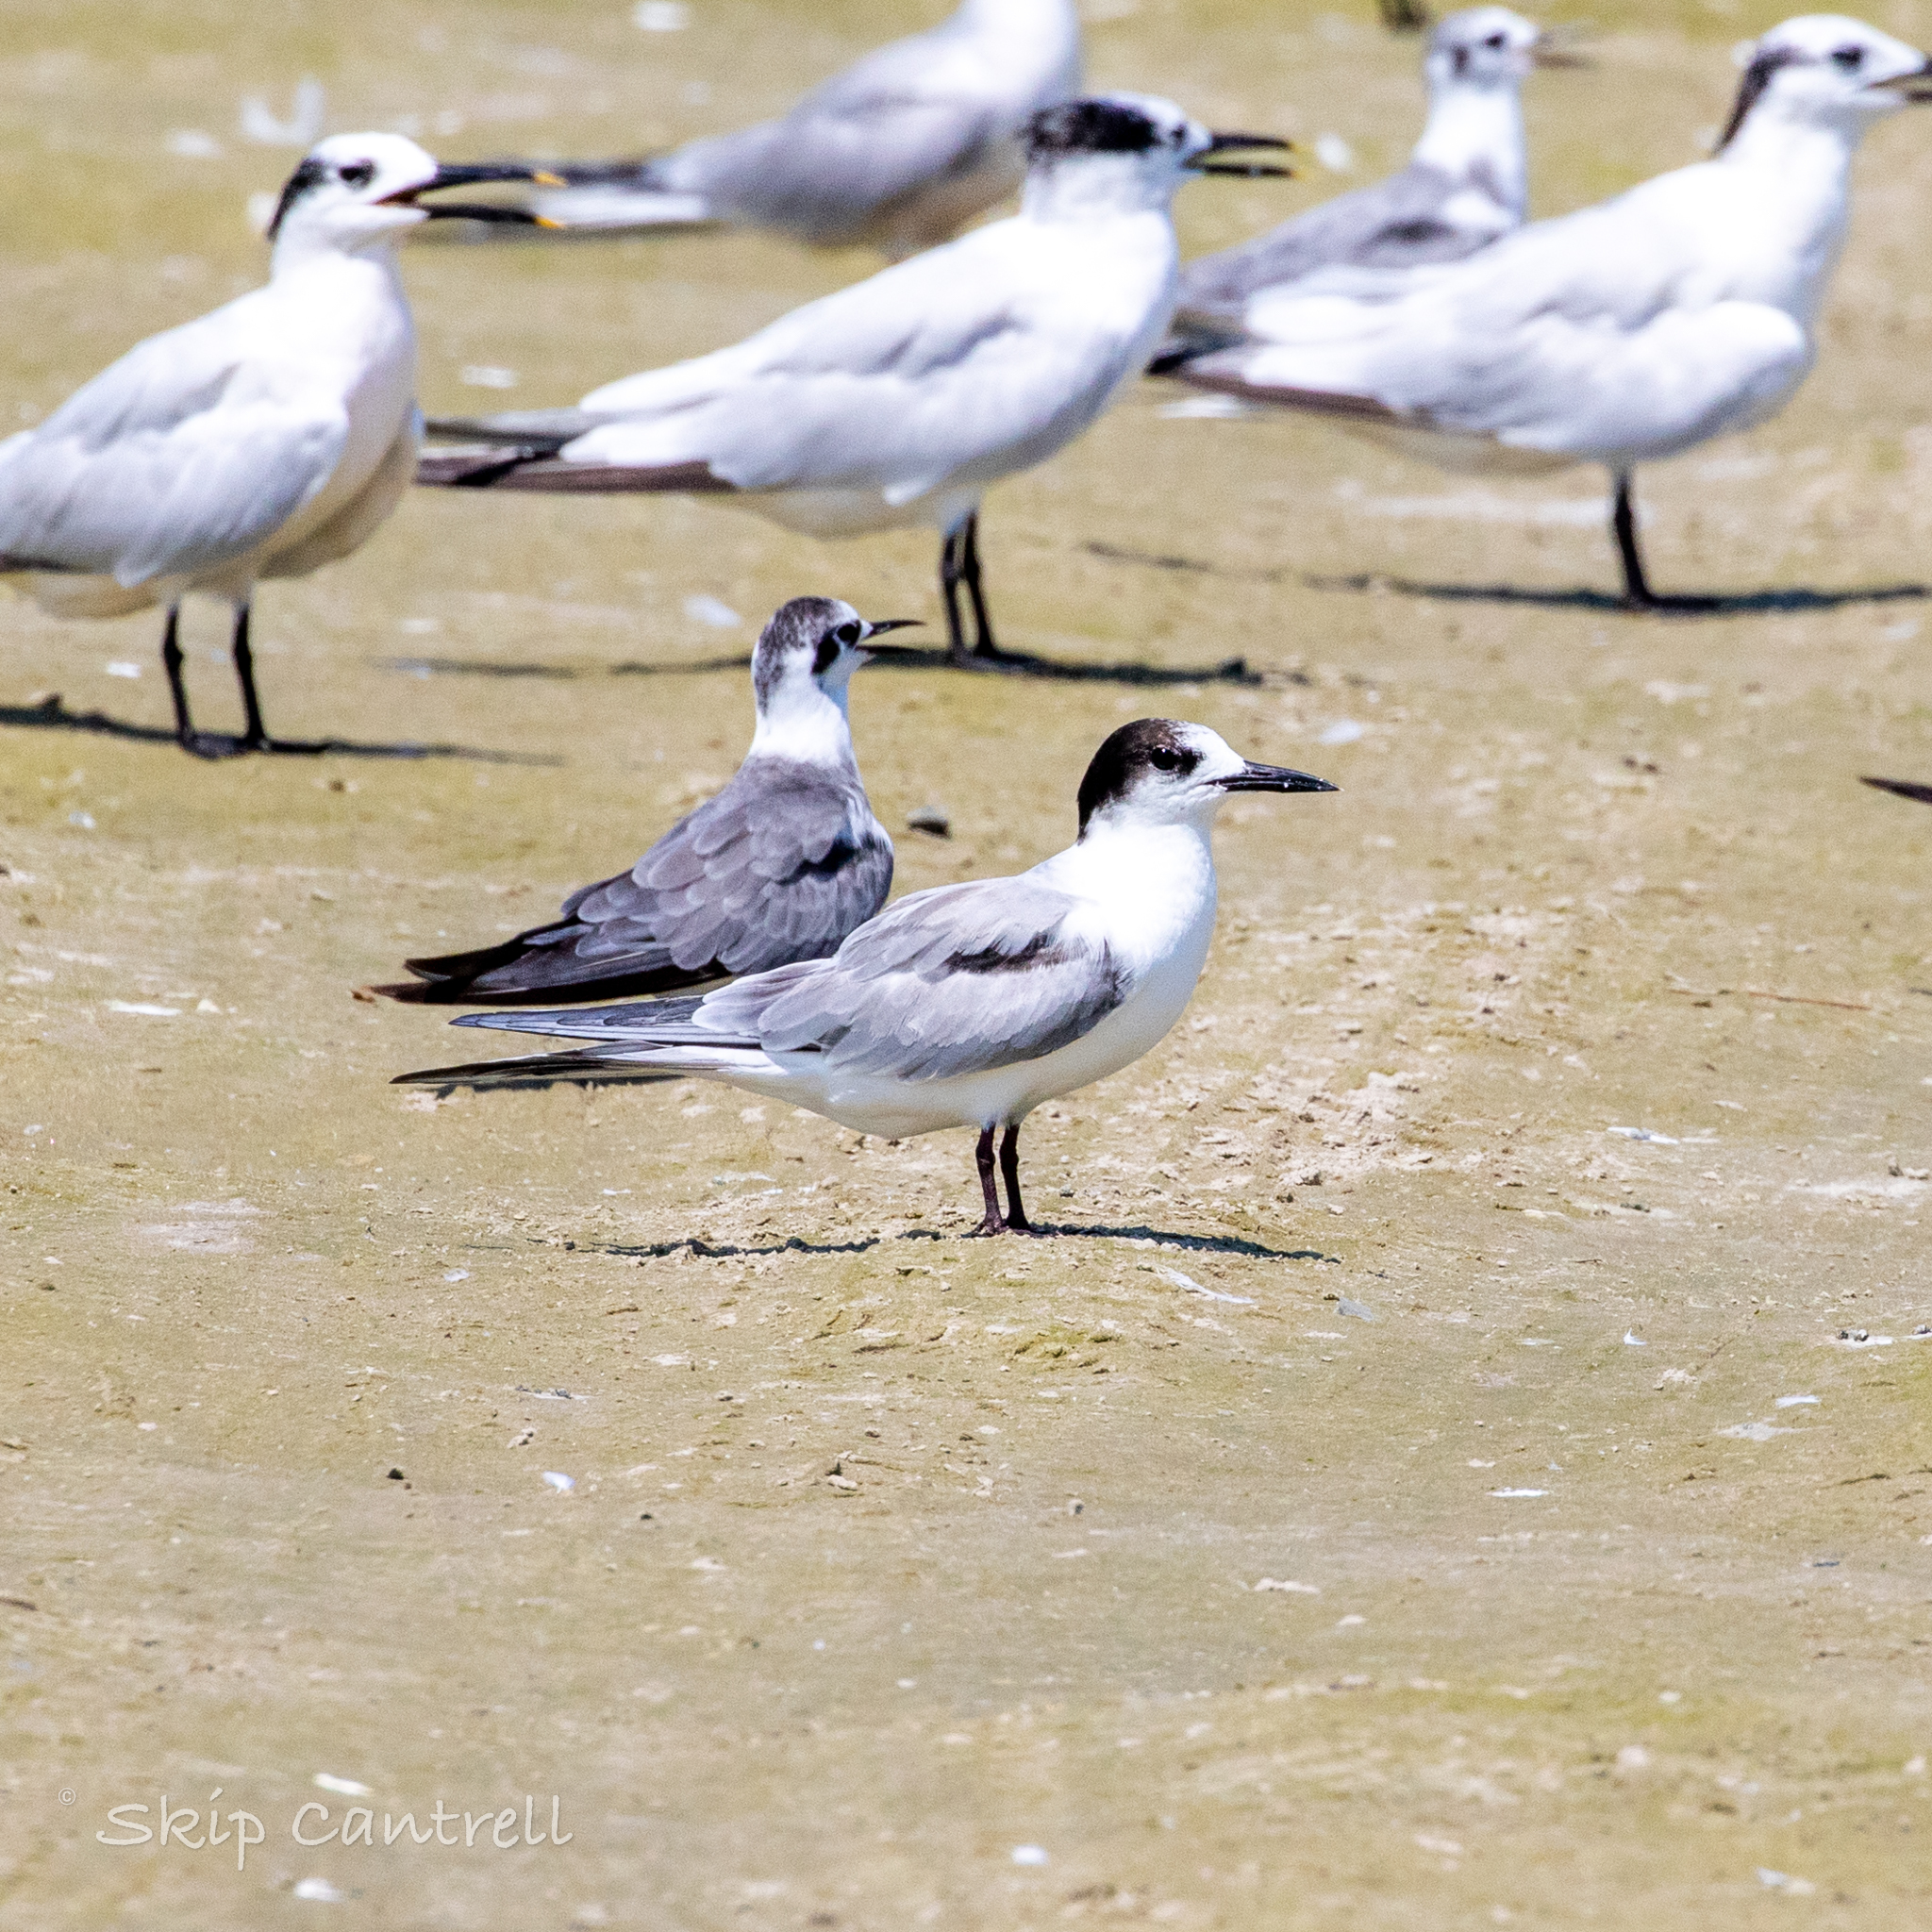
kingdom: Animalia
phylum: Chordata
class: Aves
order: Charadriiformes
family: Laridae
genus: Sterna
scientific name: Sterna hirundo
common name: Common tern
